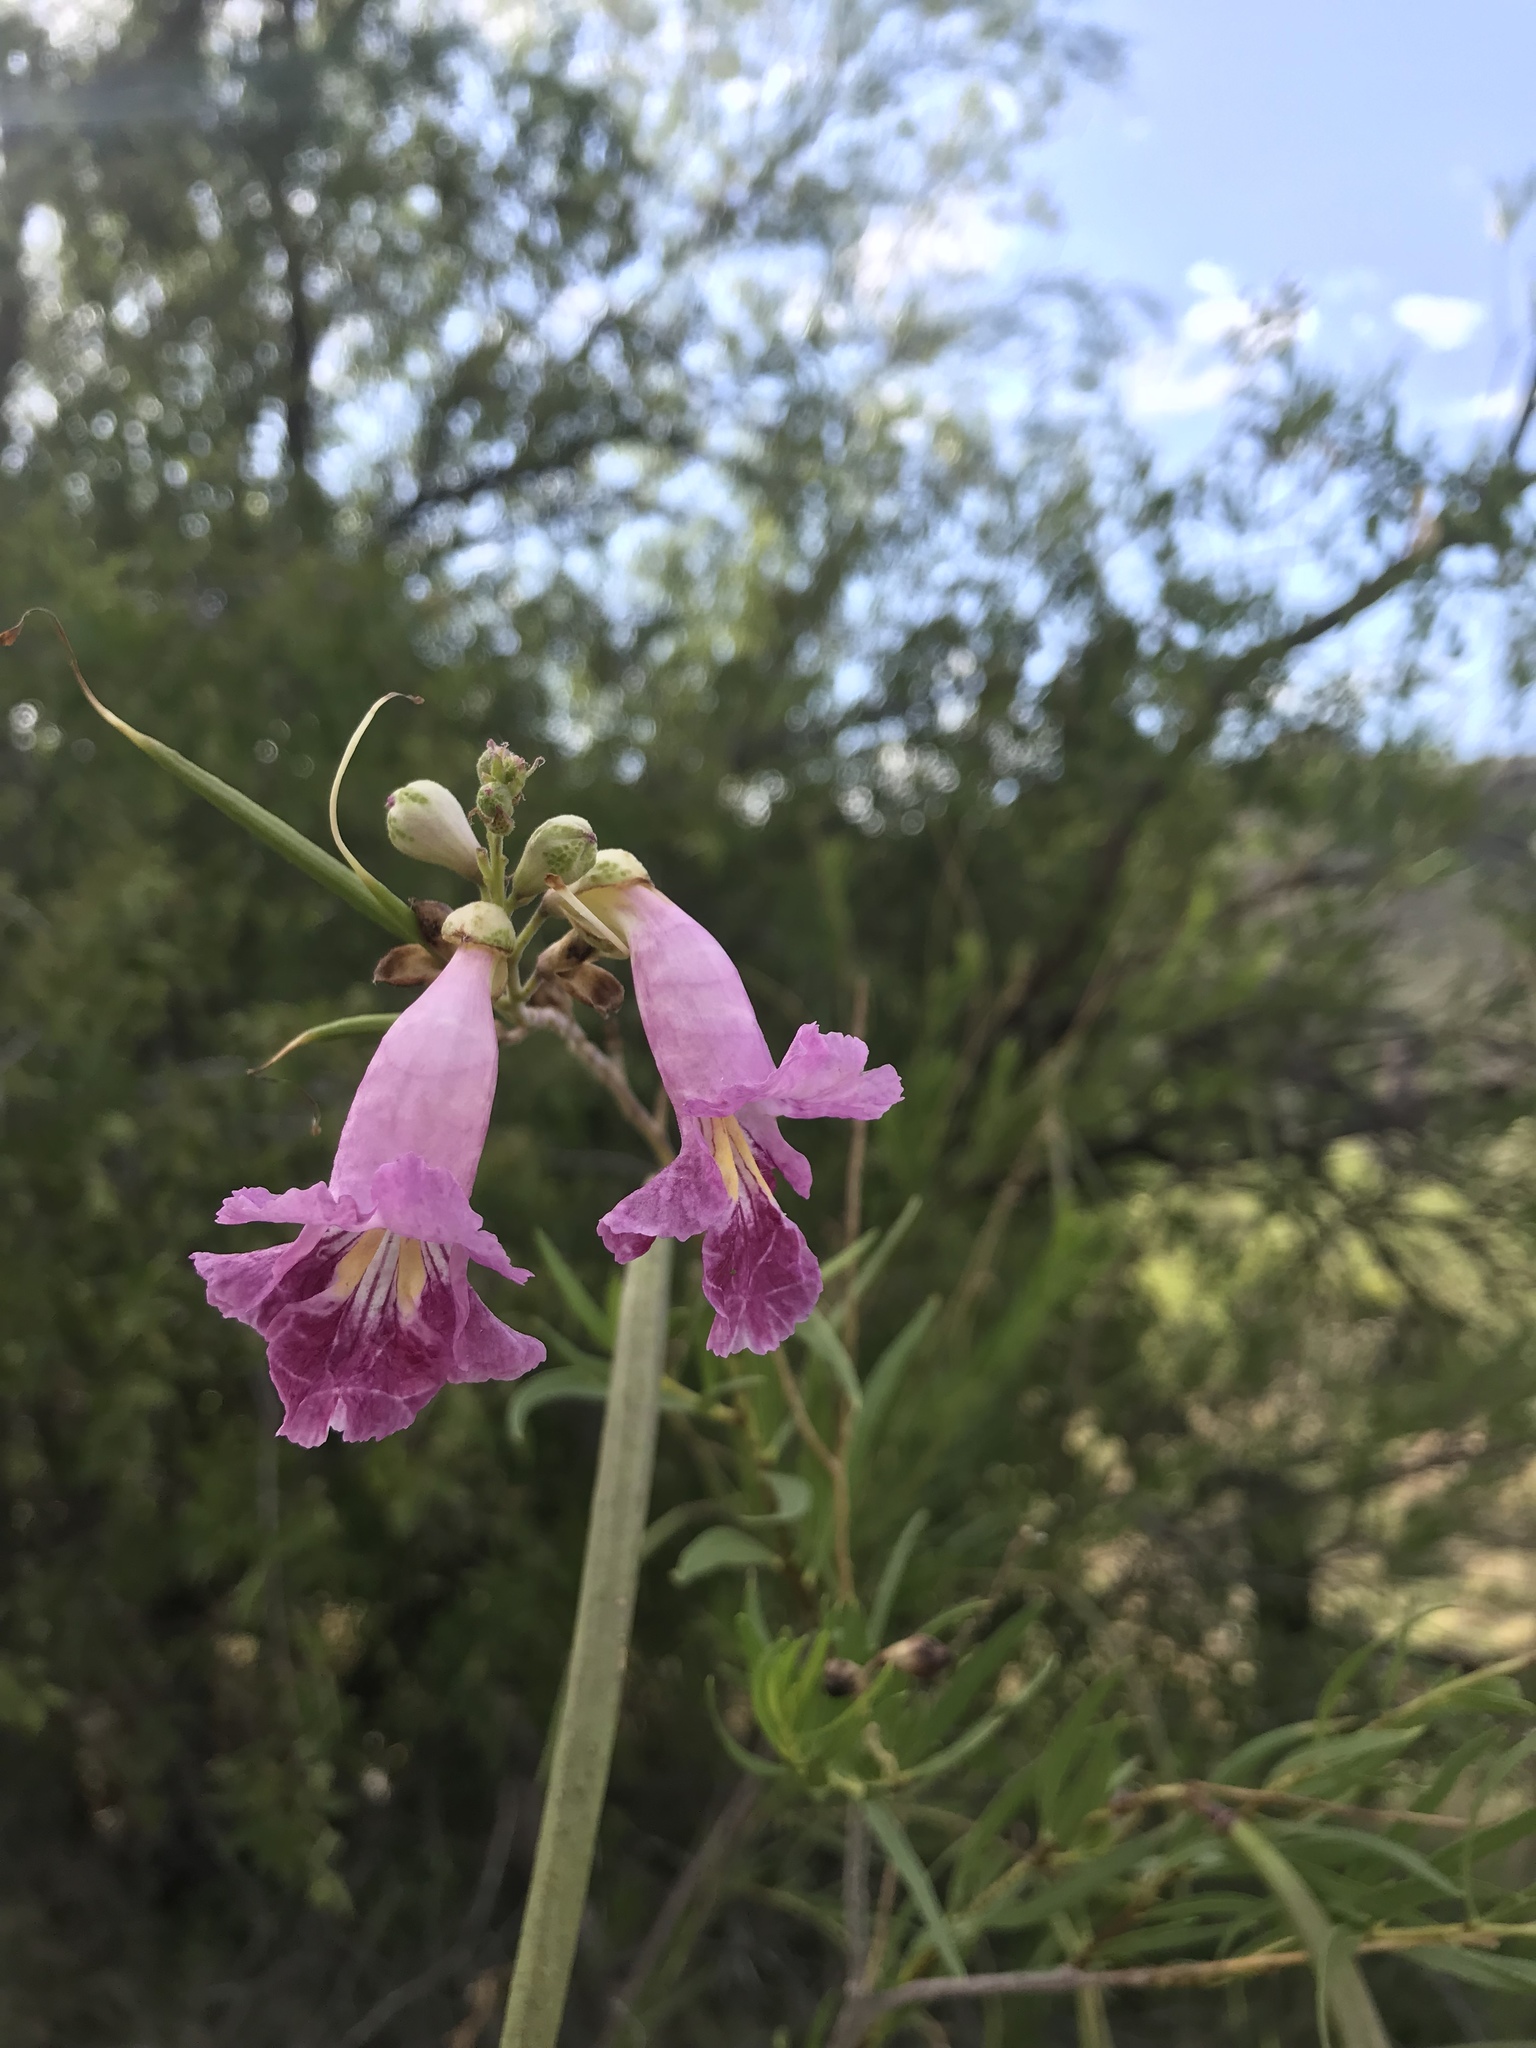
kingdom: Plantae
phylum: Tracheophyta
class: Magnoliopsida
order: Lamiales
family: Bignoniaceae
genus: Chilopsis
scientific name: Chilopsis linearis
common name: Desert-willow
